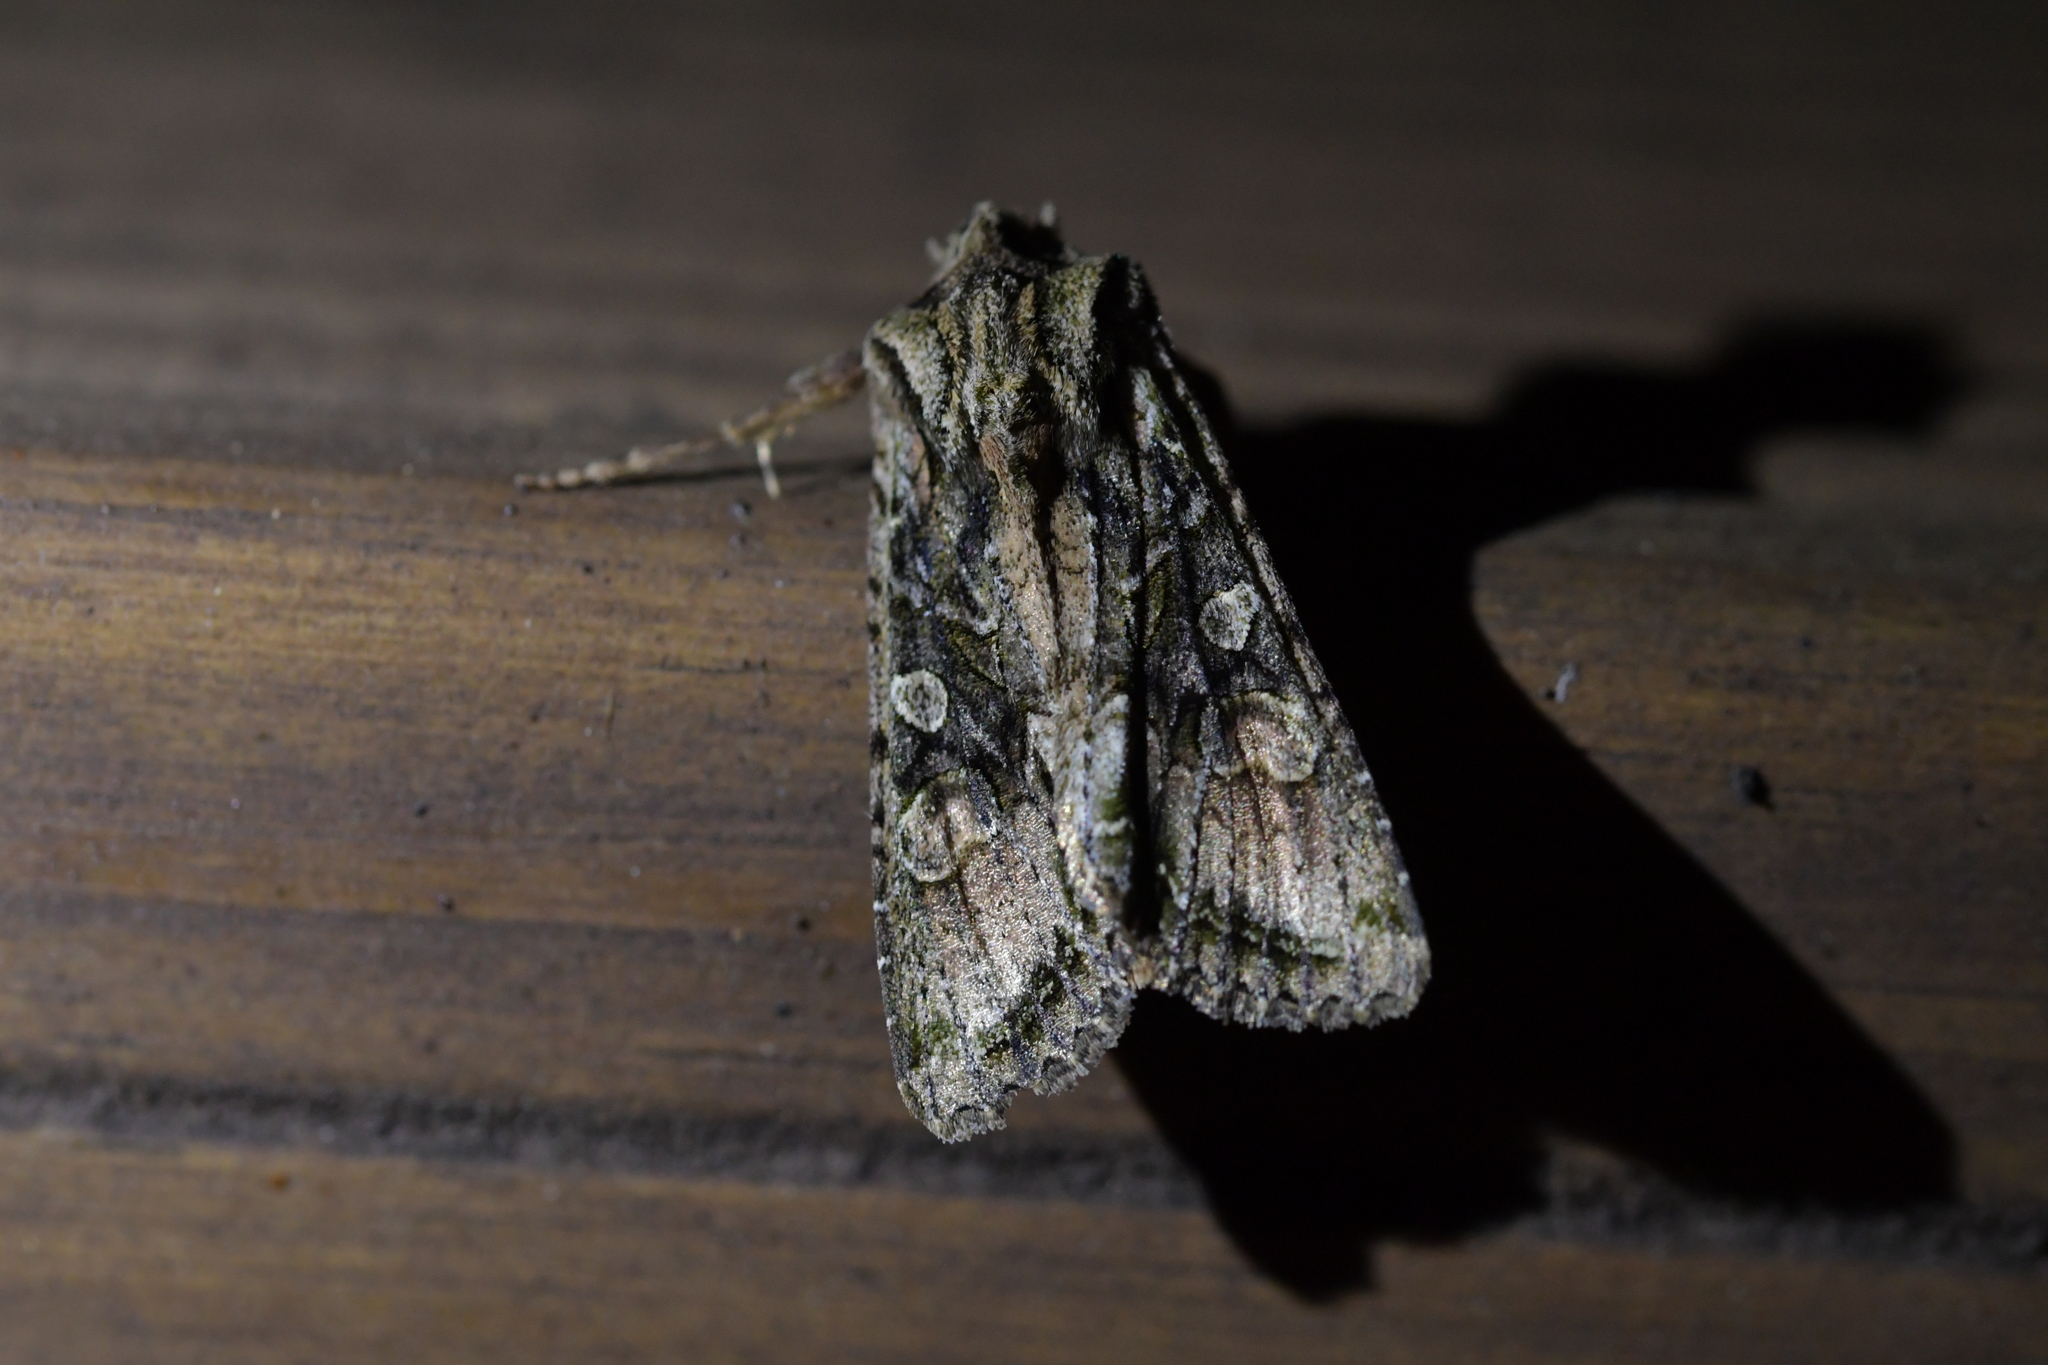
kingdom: Animalia
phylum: Arthropoda
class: Insecta
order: Lepidoptera
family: Noctuidae
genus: Ichneutica
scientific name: Ichneutica mutans
